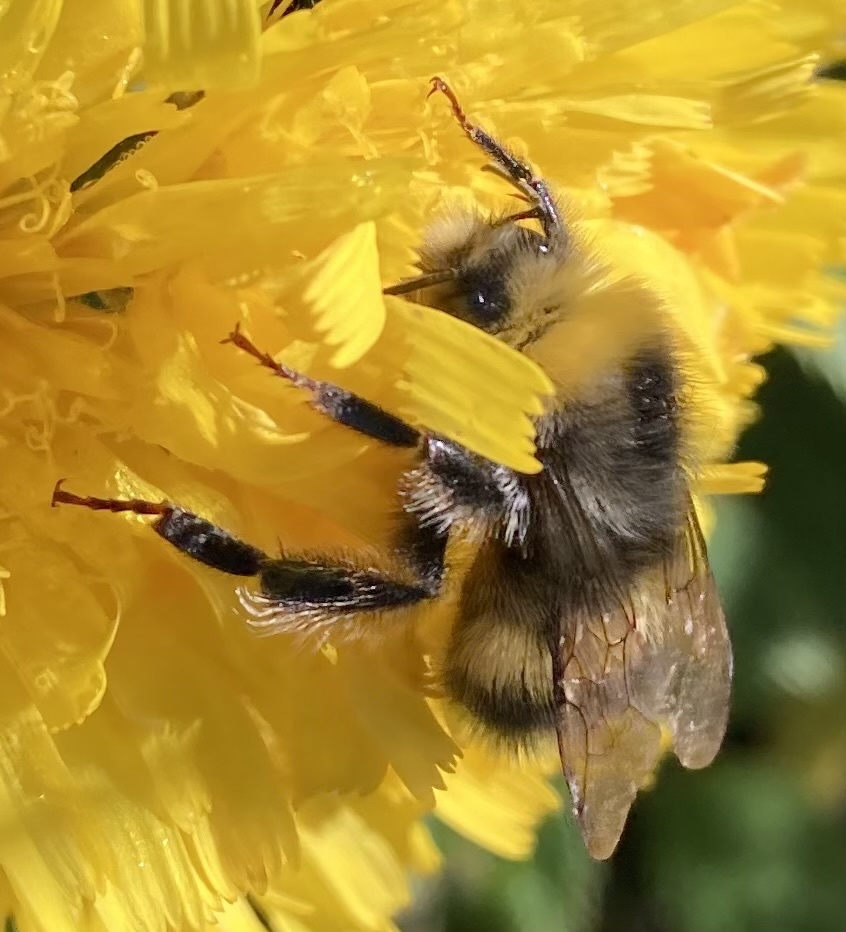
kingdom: Animalia
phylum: Arthropoda
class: Insecta
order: Hymenoptera
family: Apidae
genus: Bombus
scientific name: Bombus lucorum
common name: White-tailed bumblebee
